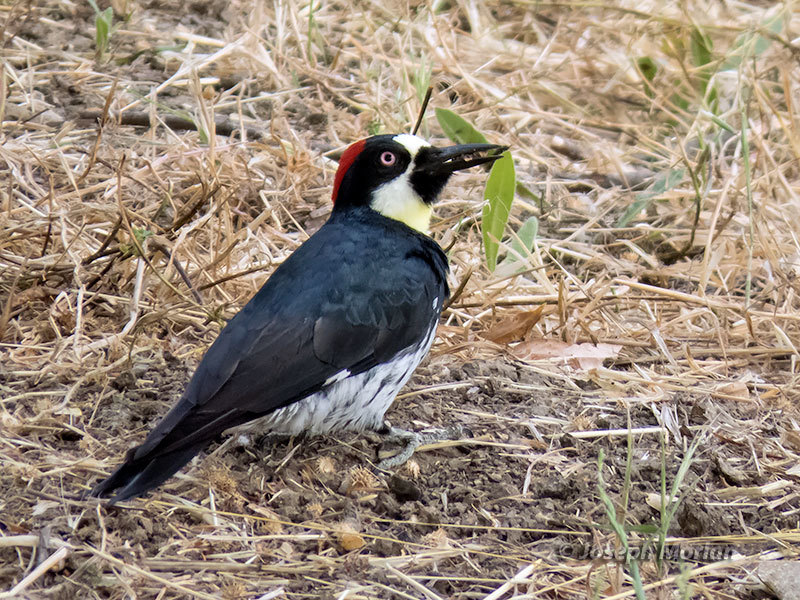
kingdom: Animalia
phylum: Chordata
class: Aves
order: Piciformes
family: Picidae
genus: Melanerpes
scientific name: Melanerpes formicivorus
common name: Acorn woodpecker
